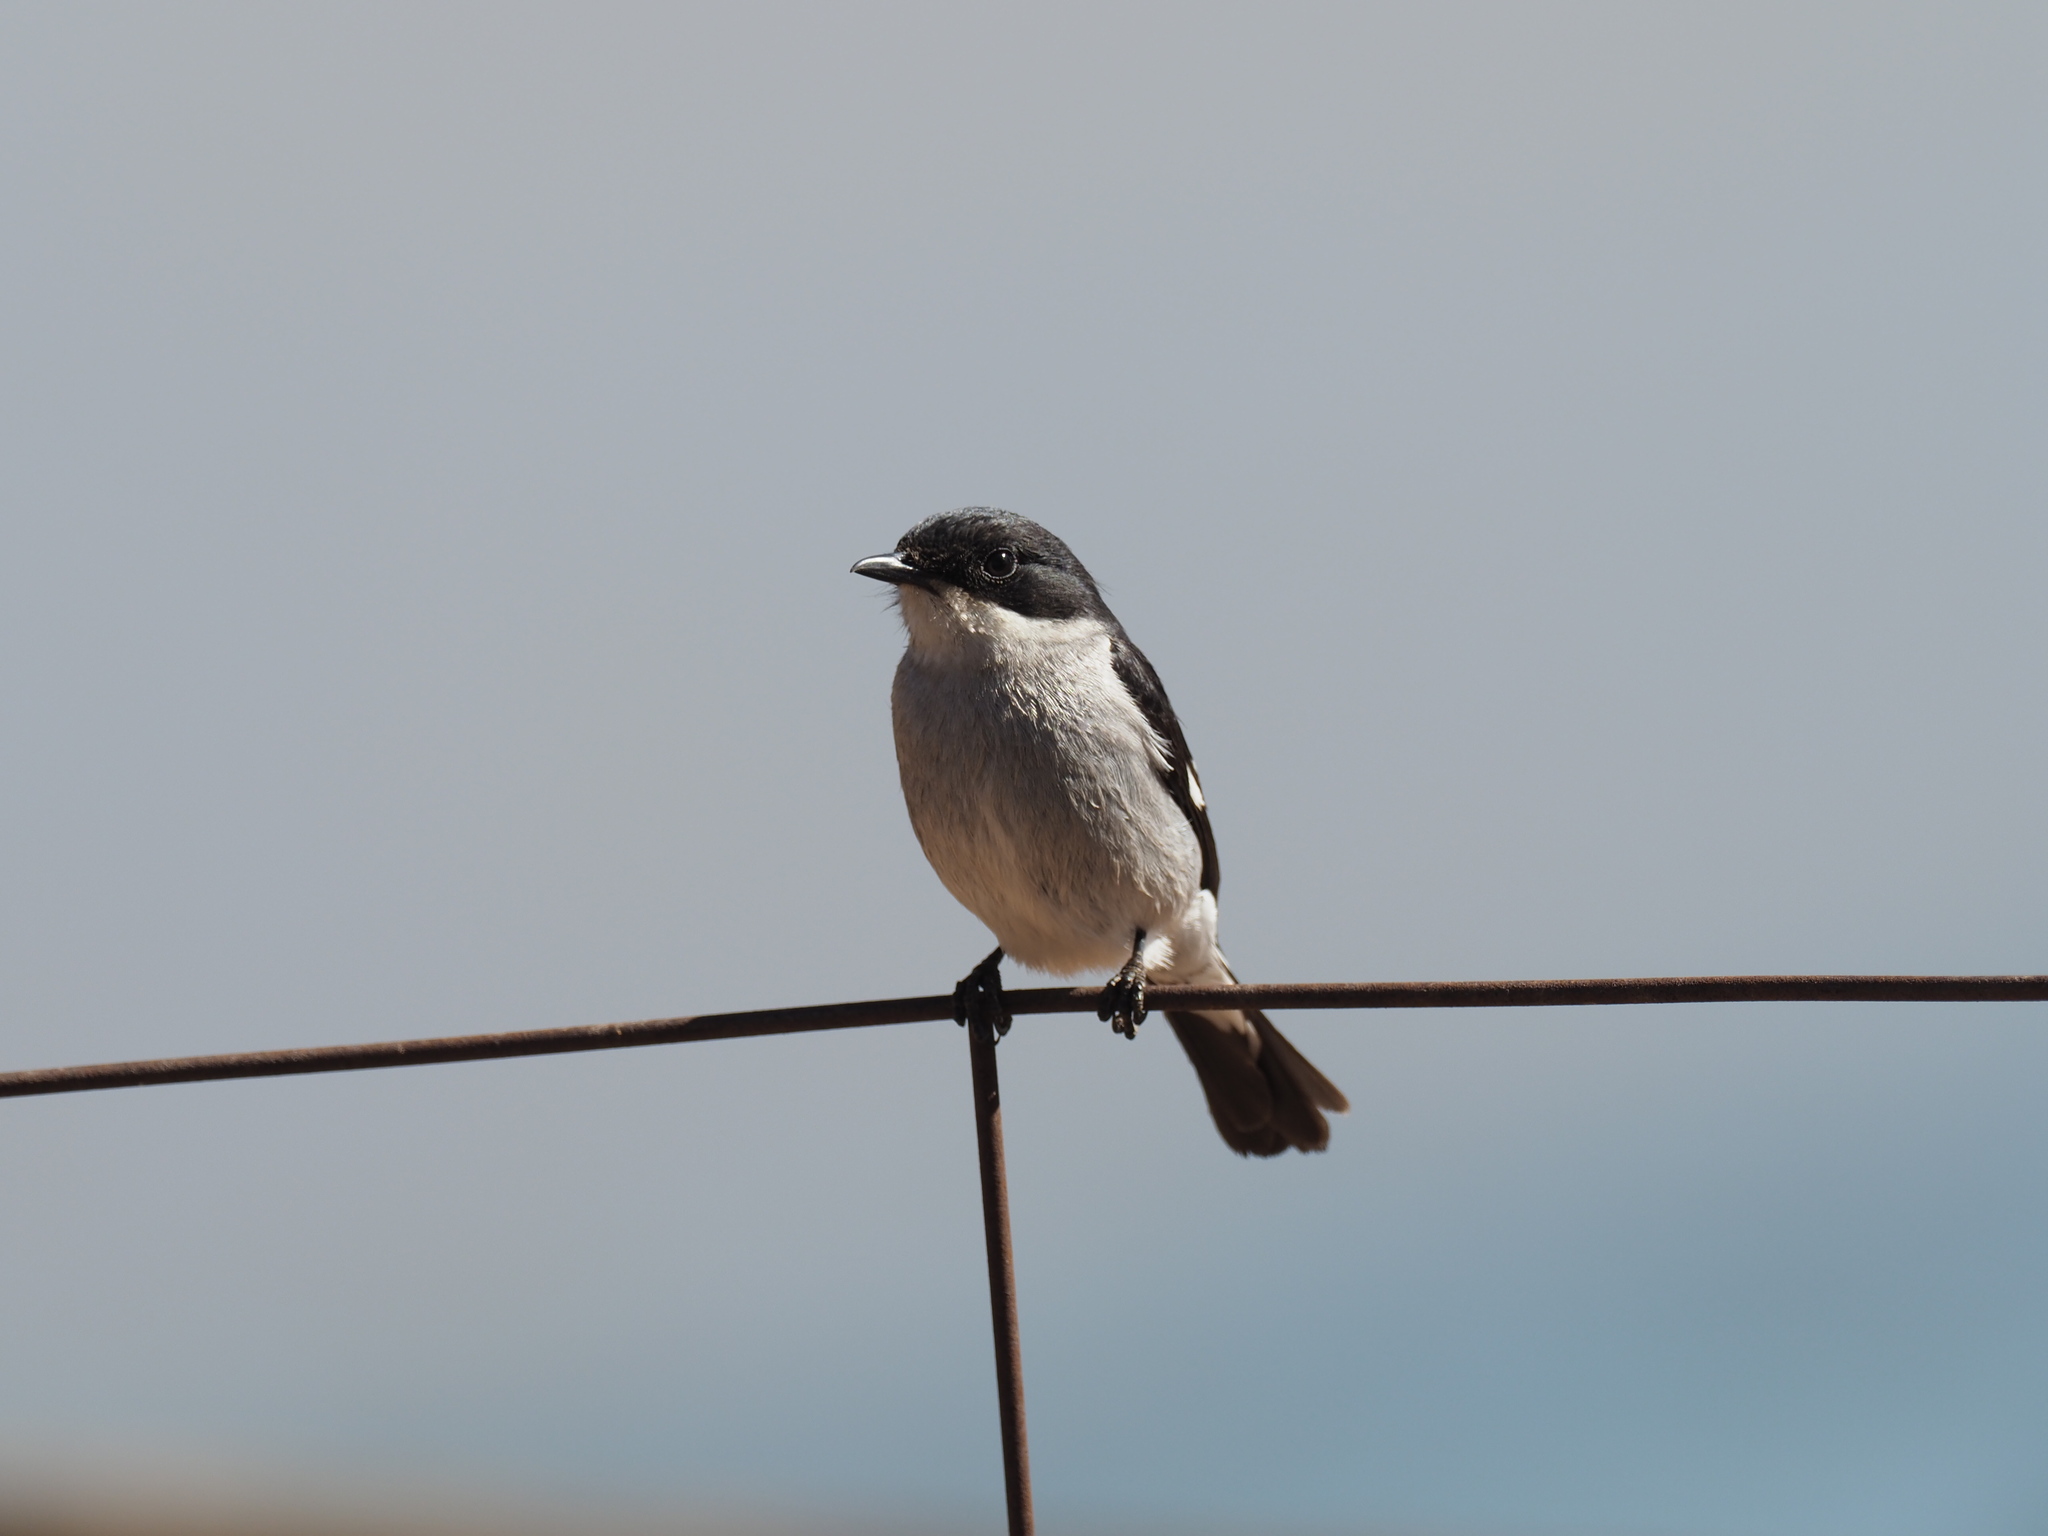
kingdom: Animalia
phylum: Chordata
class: Aves
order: Passeriformes
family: Muscicapidae
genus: Sigelus
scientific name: Sigelus silens
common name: Fiscal flycatcher
